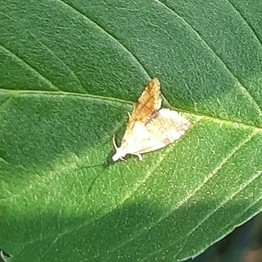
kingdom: Animalia
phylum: Arthropoda
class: Insecta
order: Lepidoptera
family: Tortricidae
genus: Pseudargyrotoza
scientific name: Pseudargyrotoza conwagana
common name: Yellow-spot twist
